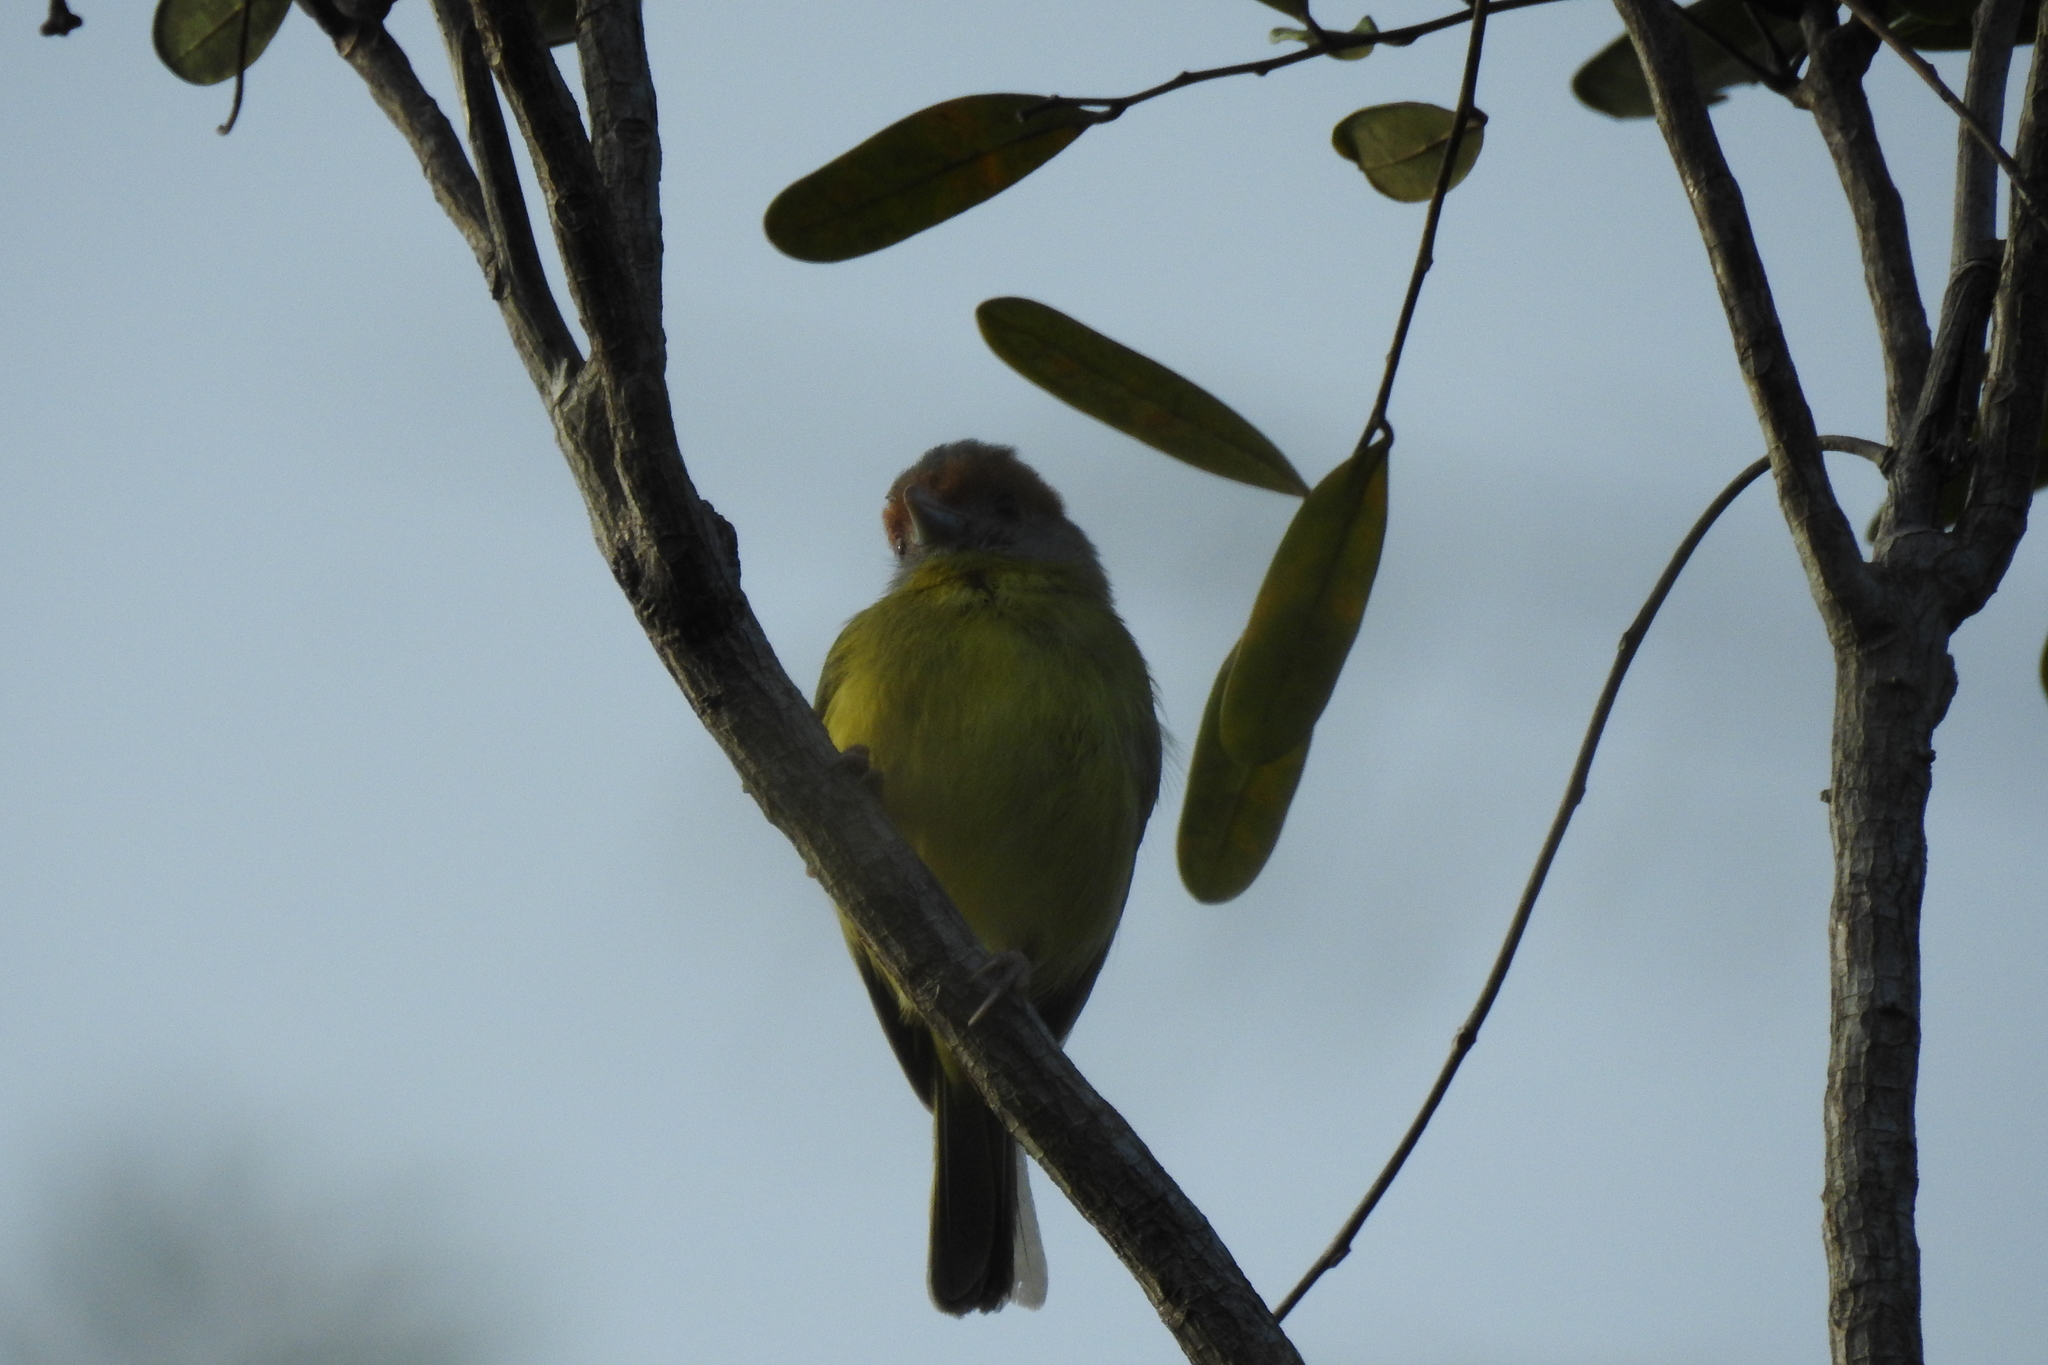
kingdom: Animalia
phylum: Chordata
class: Aves
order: Passeriformes
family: Vireonidae
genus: Cyclarhis
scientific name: Cyclarhis gujanensis
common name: Rufous-browed peppershrike
